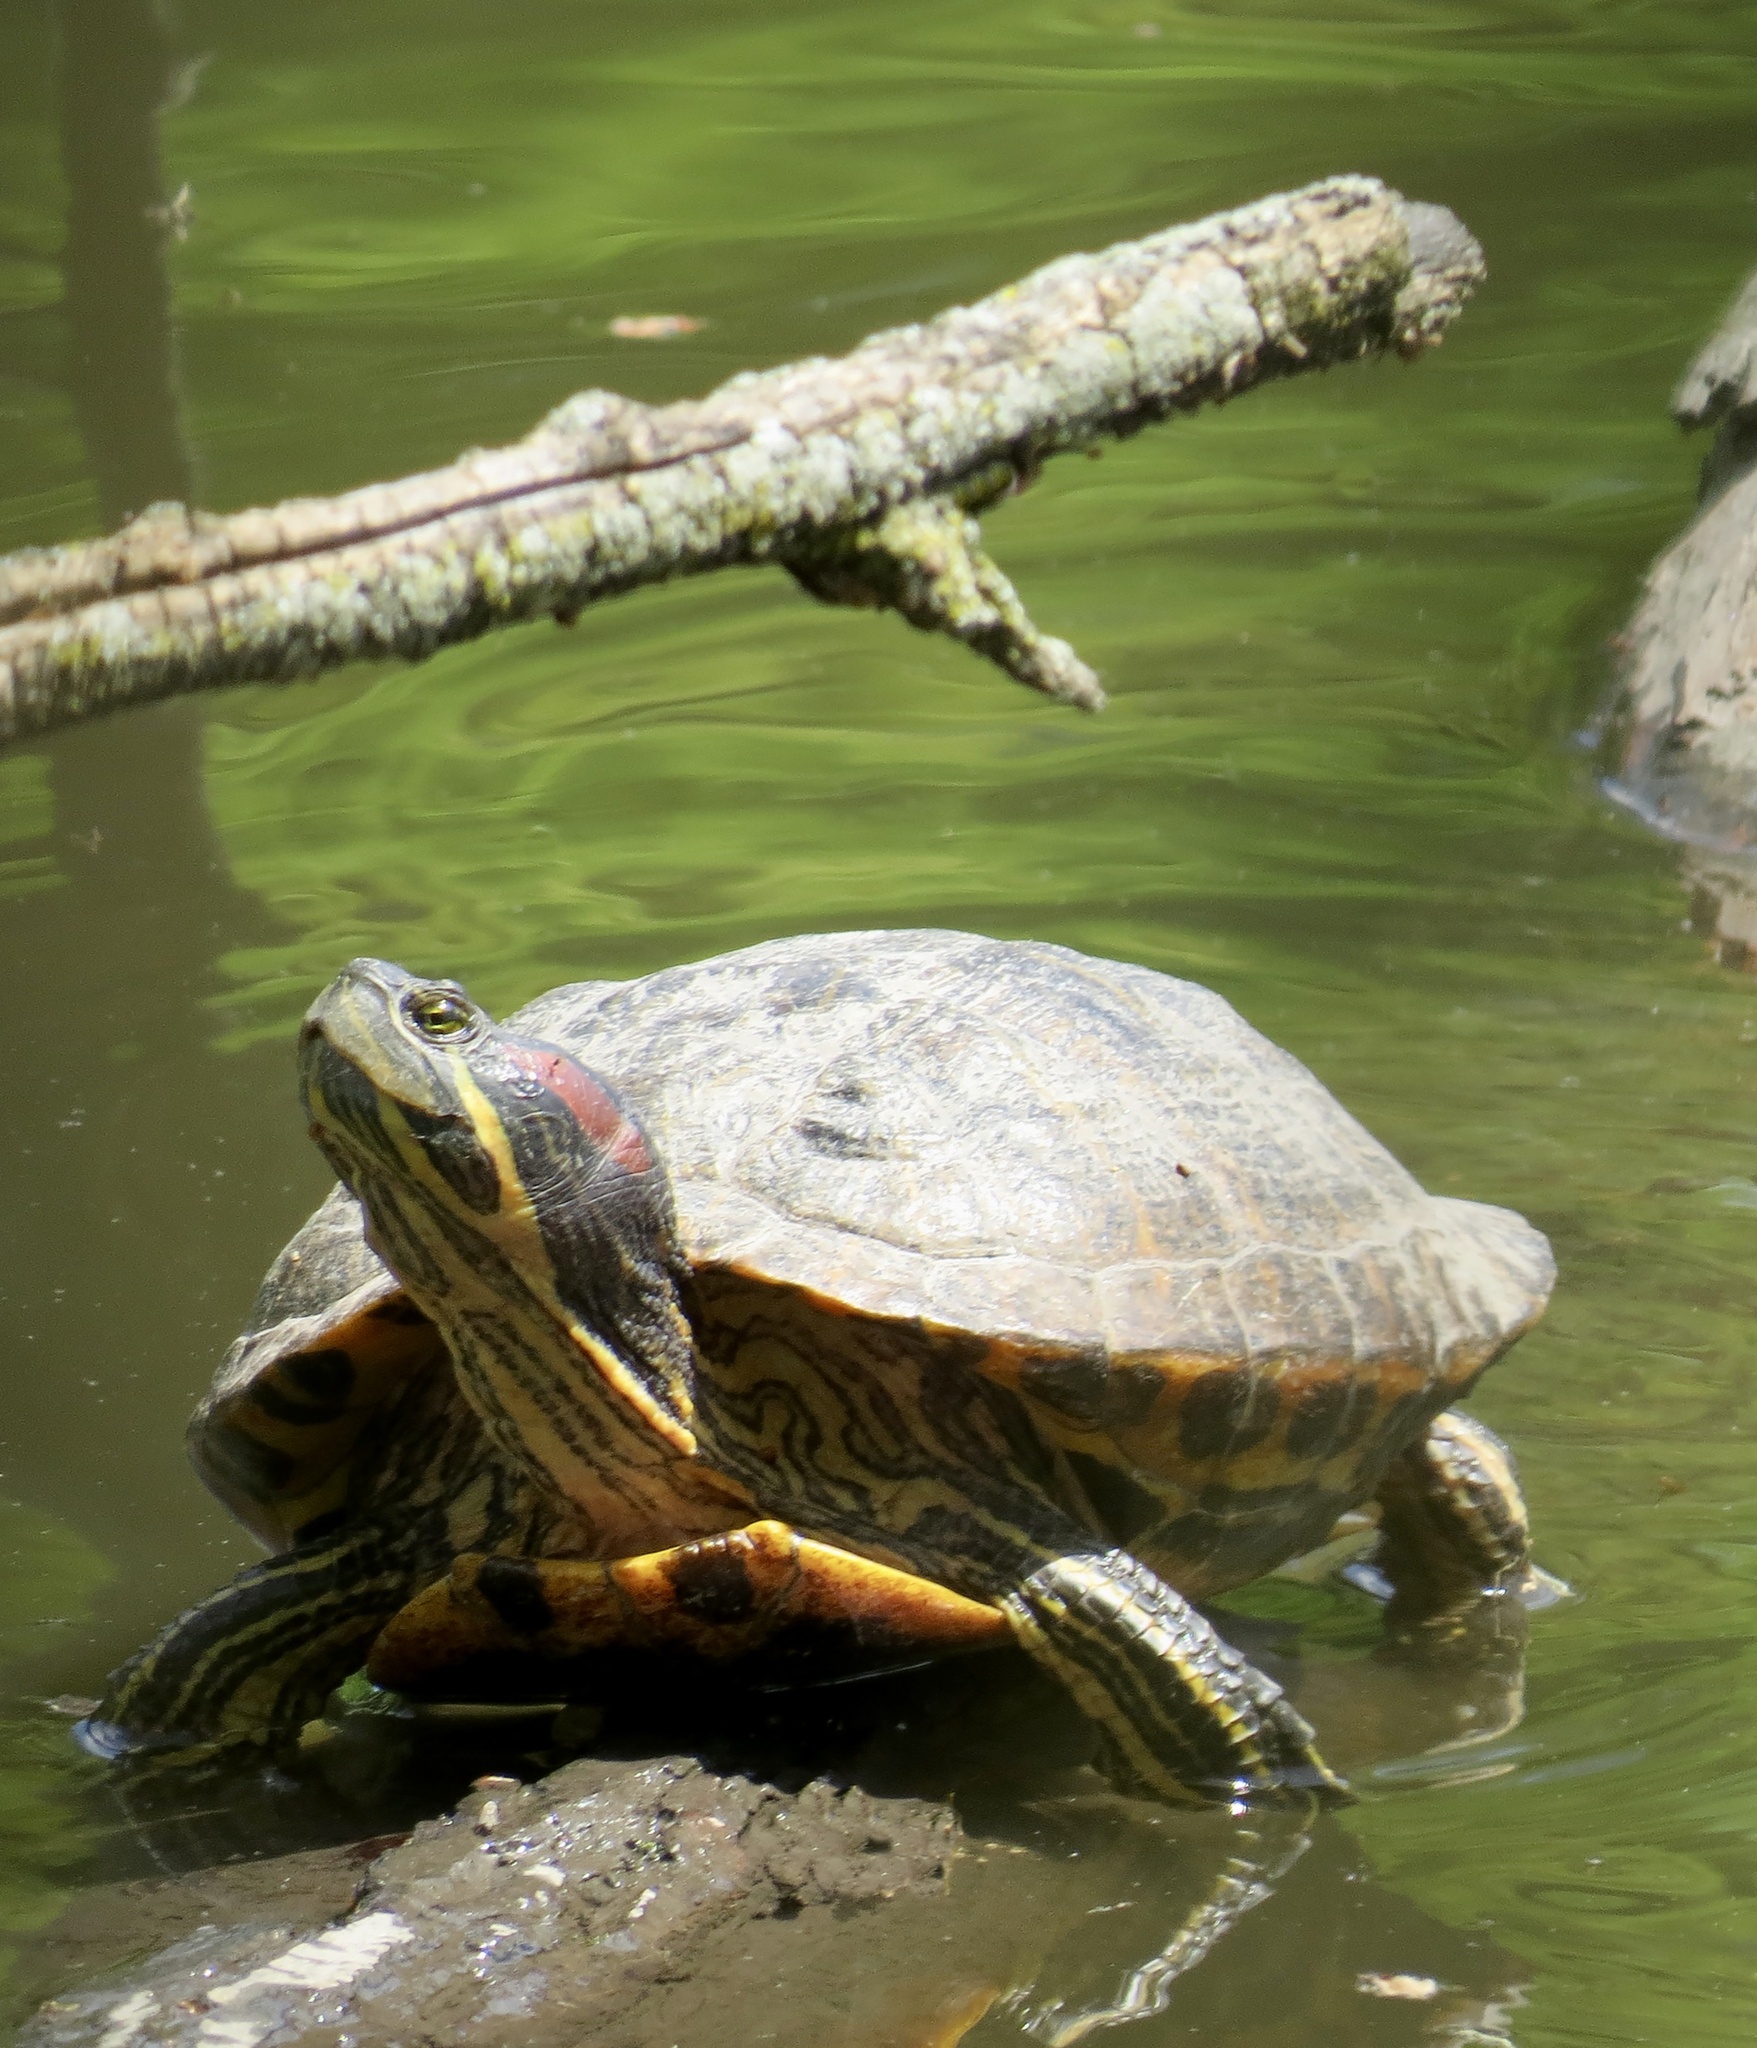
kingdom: Animalia
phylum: Chordata
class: Testudines
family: Emydidae
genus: Trachemys
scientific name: Trachemys scripta
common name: Slider
